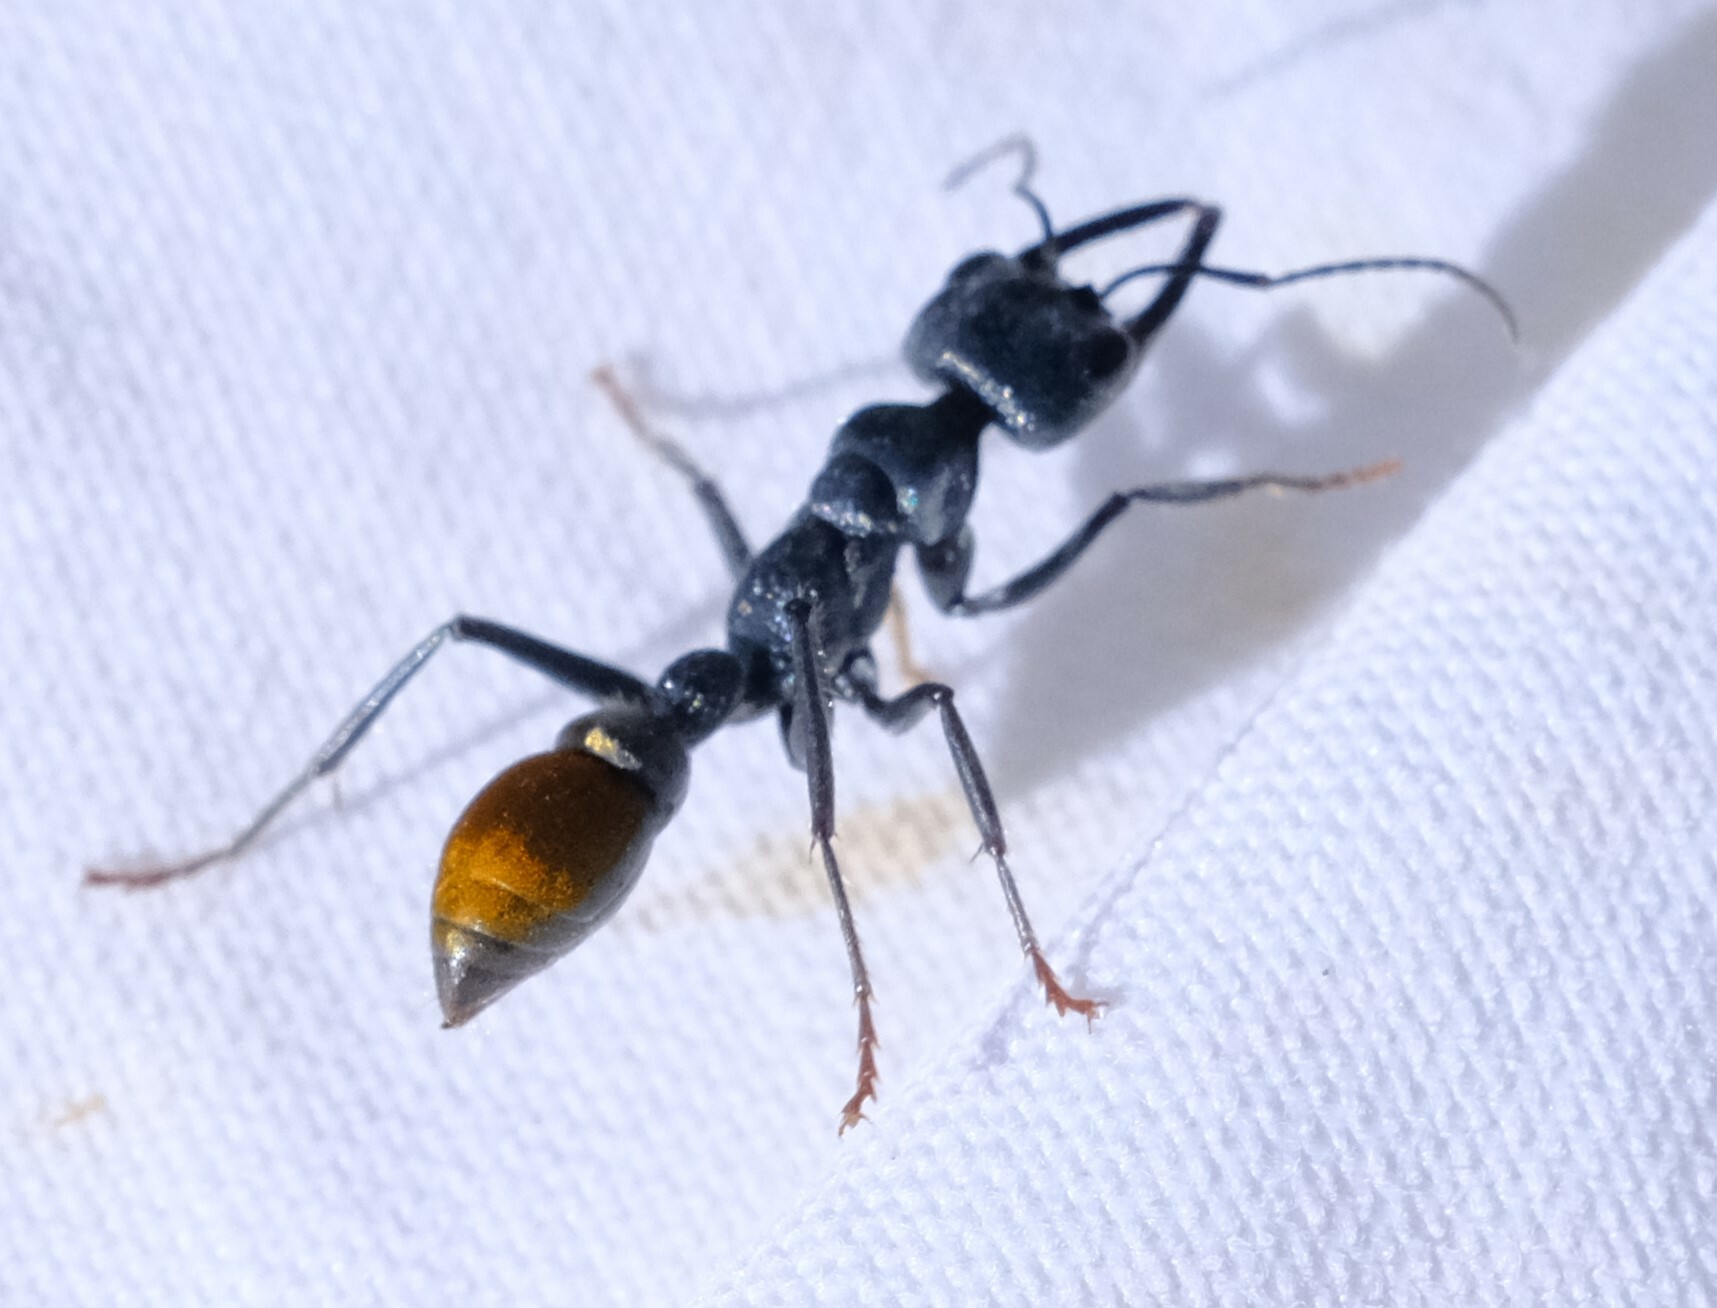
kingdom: Animalia
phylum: Arthropoda
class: Insecta
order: Hymenoptera
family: Formicidae
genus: Myrmecia
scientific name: Myrmecia mandibularis
